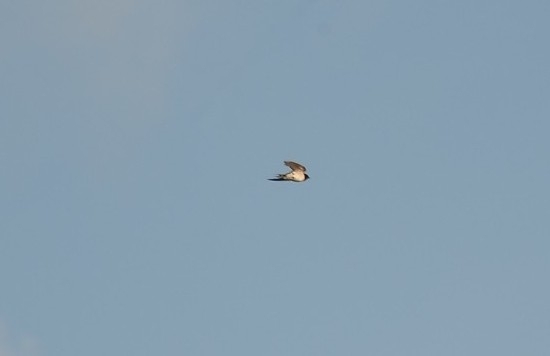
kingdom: Animalia
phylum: Chordata
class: Aves
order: Passeriformes
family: Hirundinidae
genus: Hirundo
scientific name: Hirundo rustica
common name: Barn swallow
